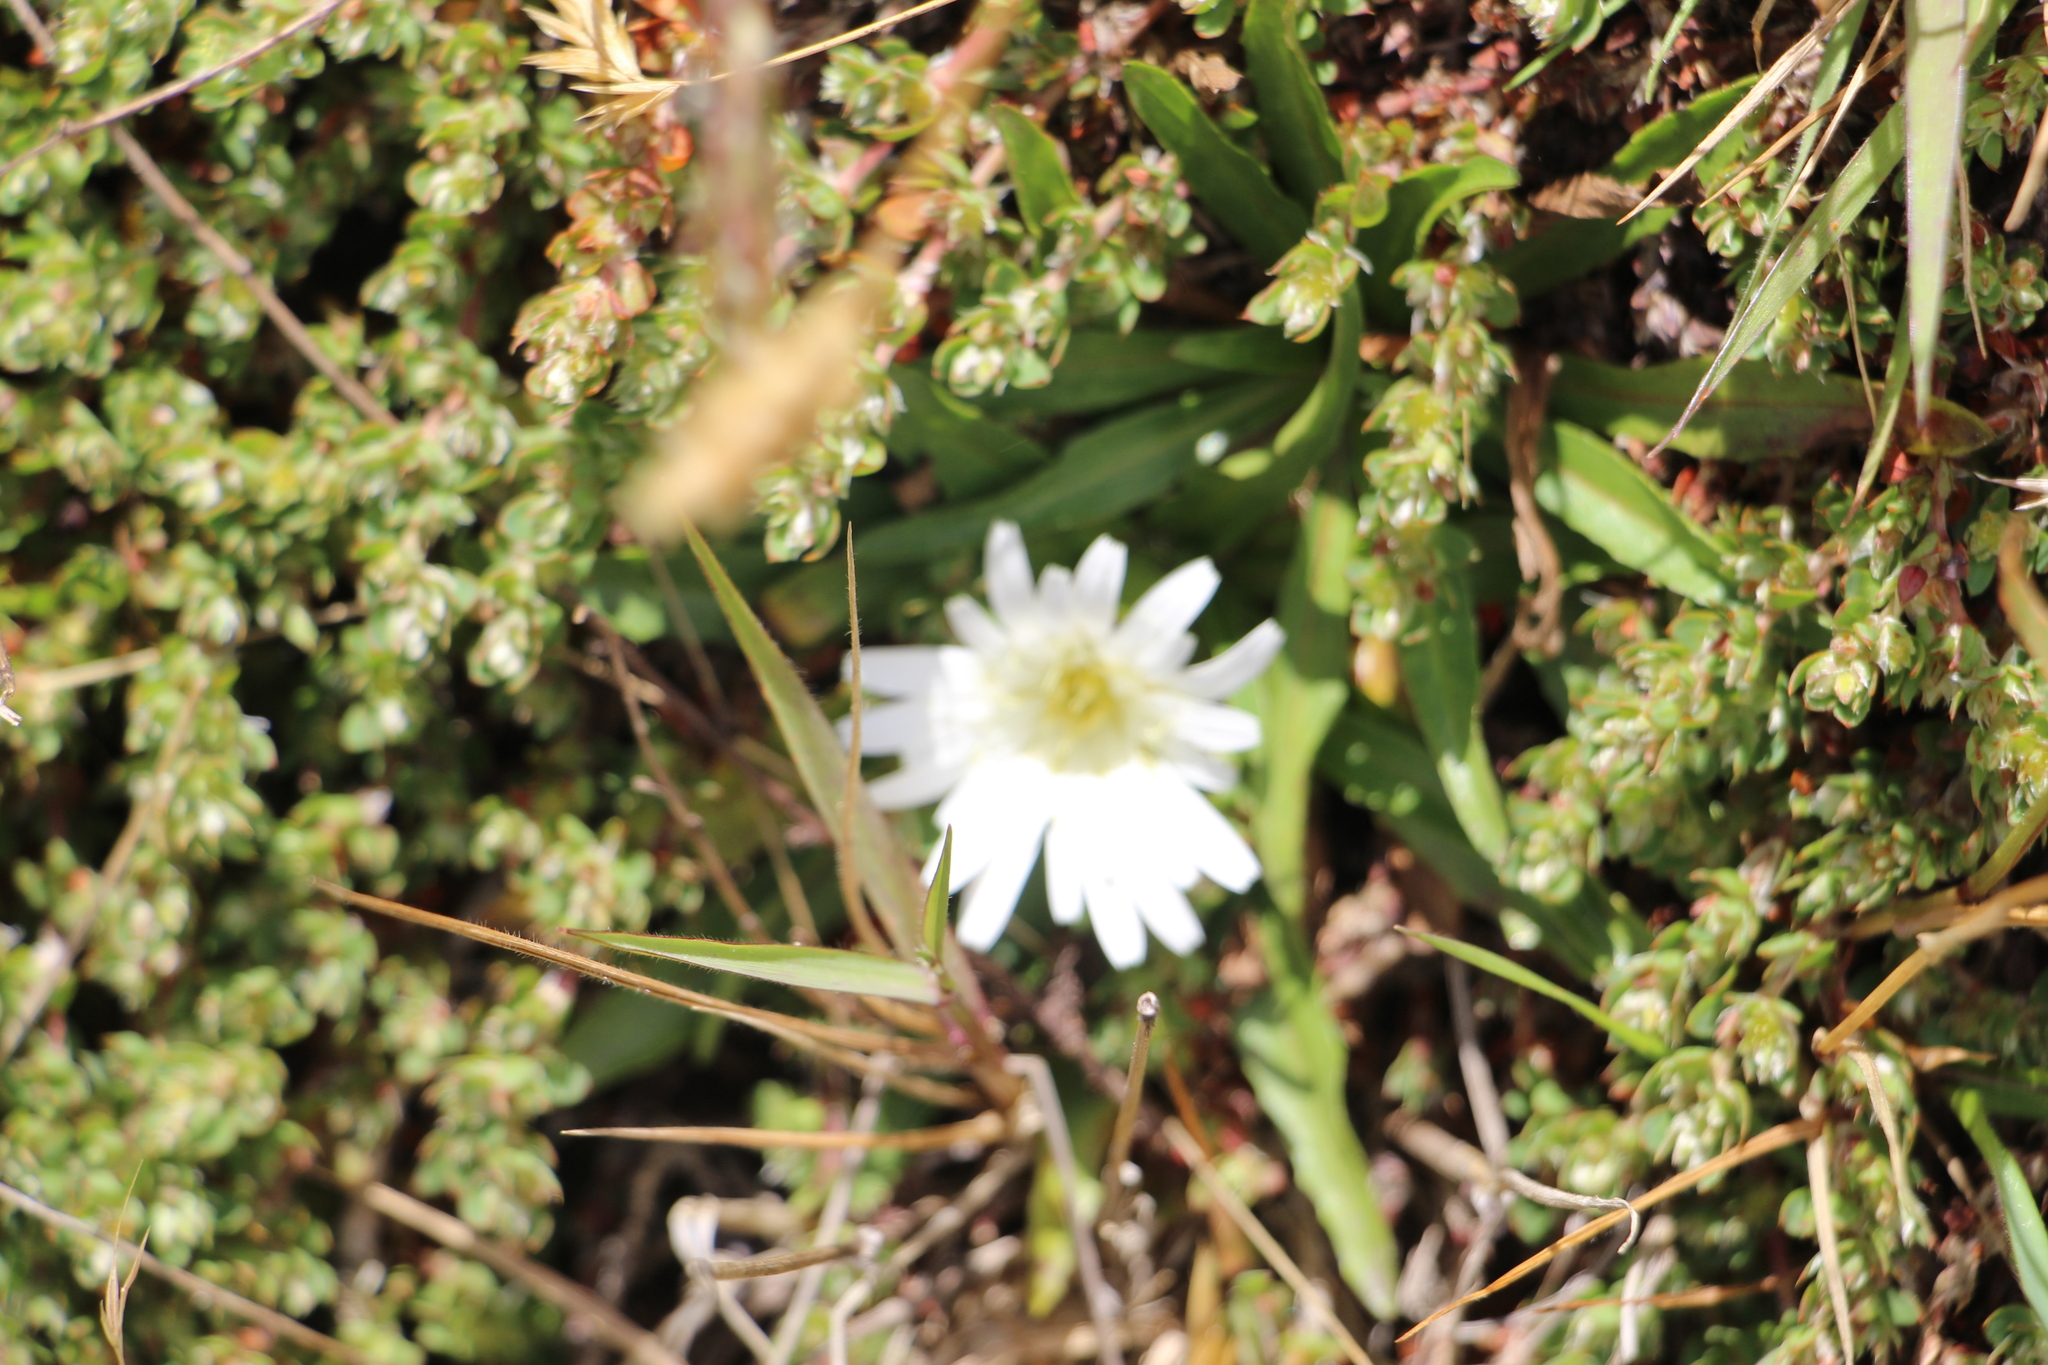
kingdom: Plantae
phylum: Tracheophyta
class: Magnoliopsida
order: Asterales
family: Asteraceae
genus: Hypochaeris
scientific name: Hypochaeris sessiliflora
